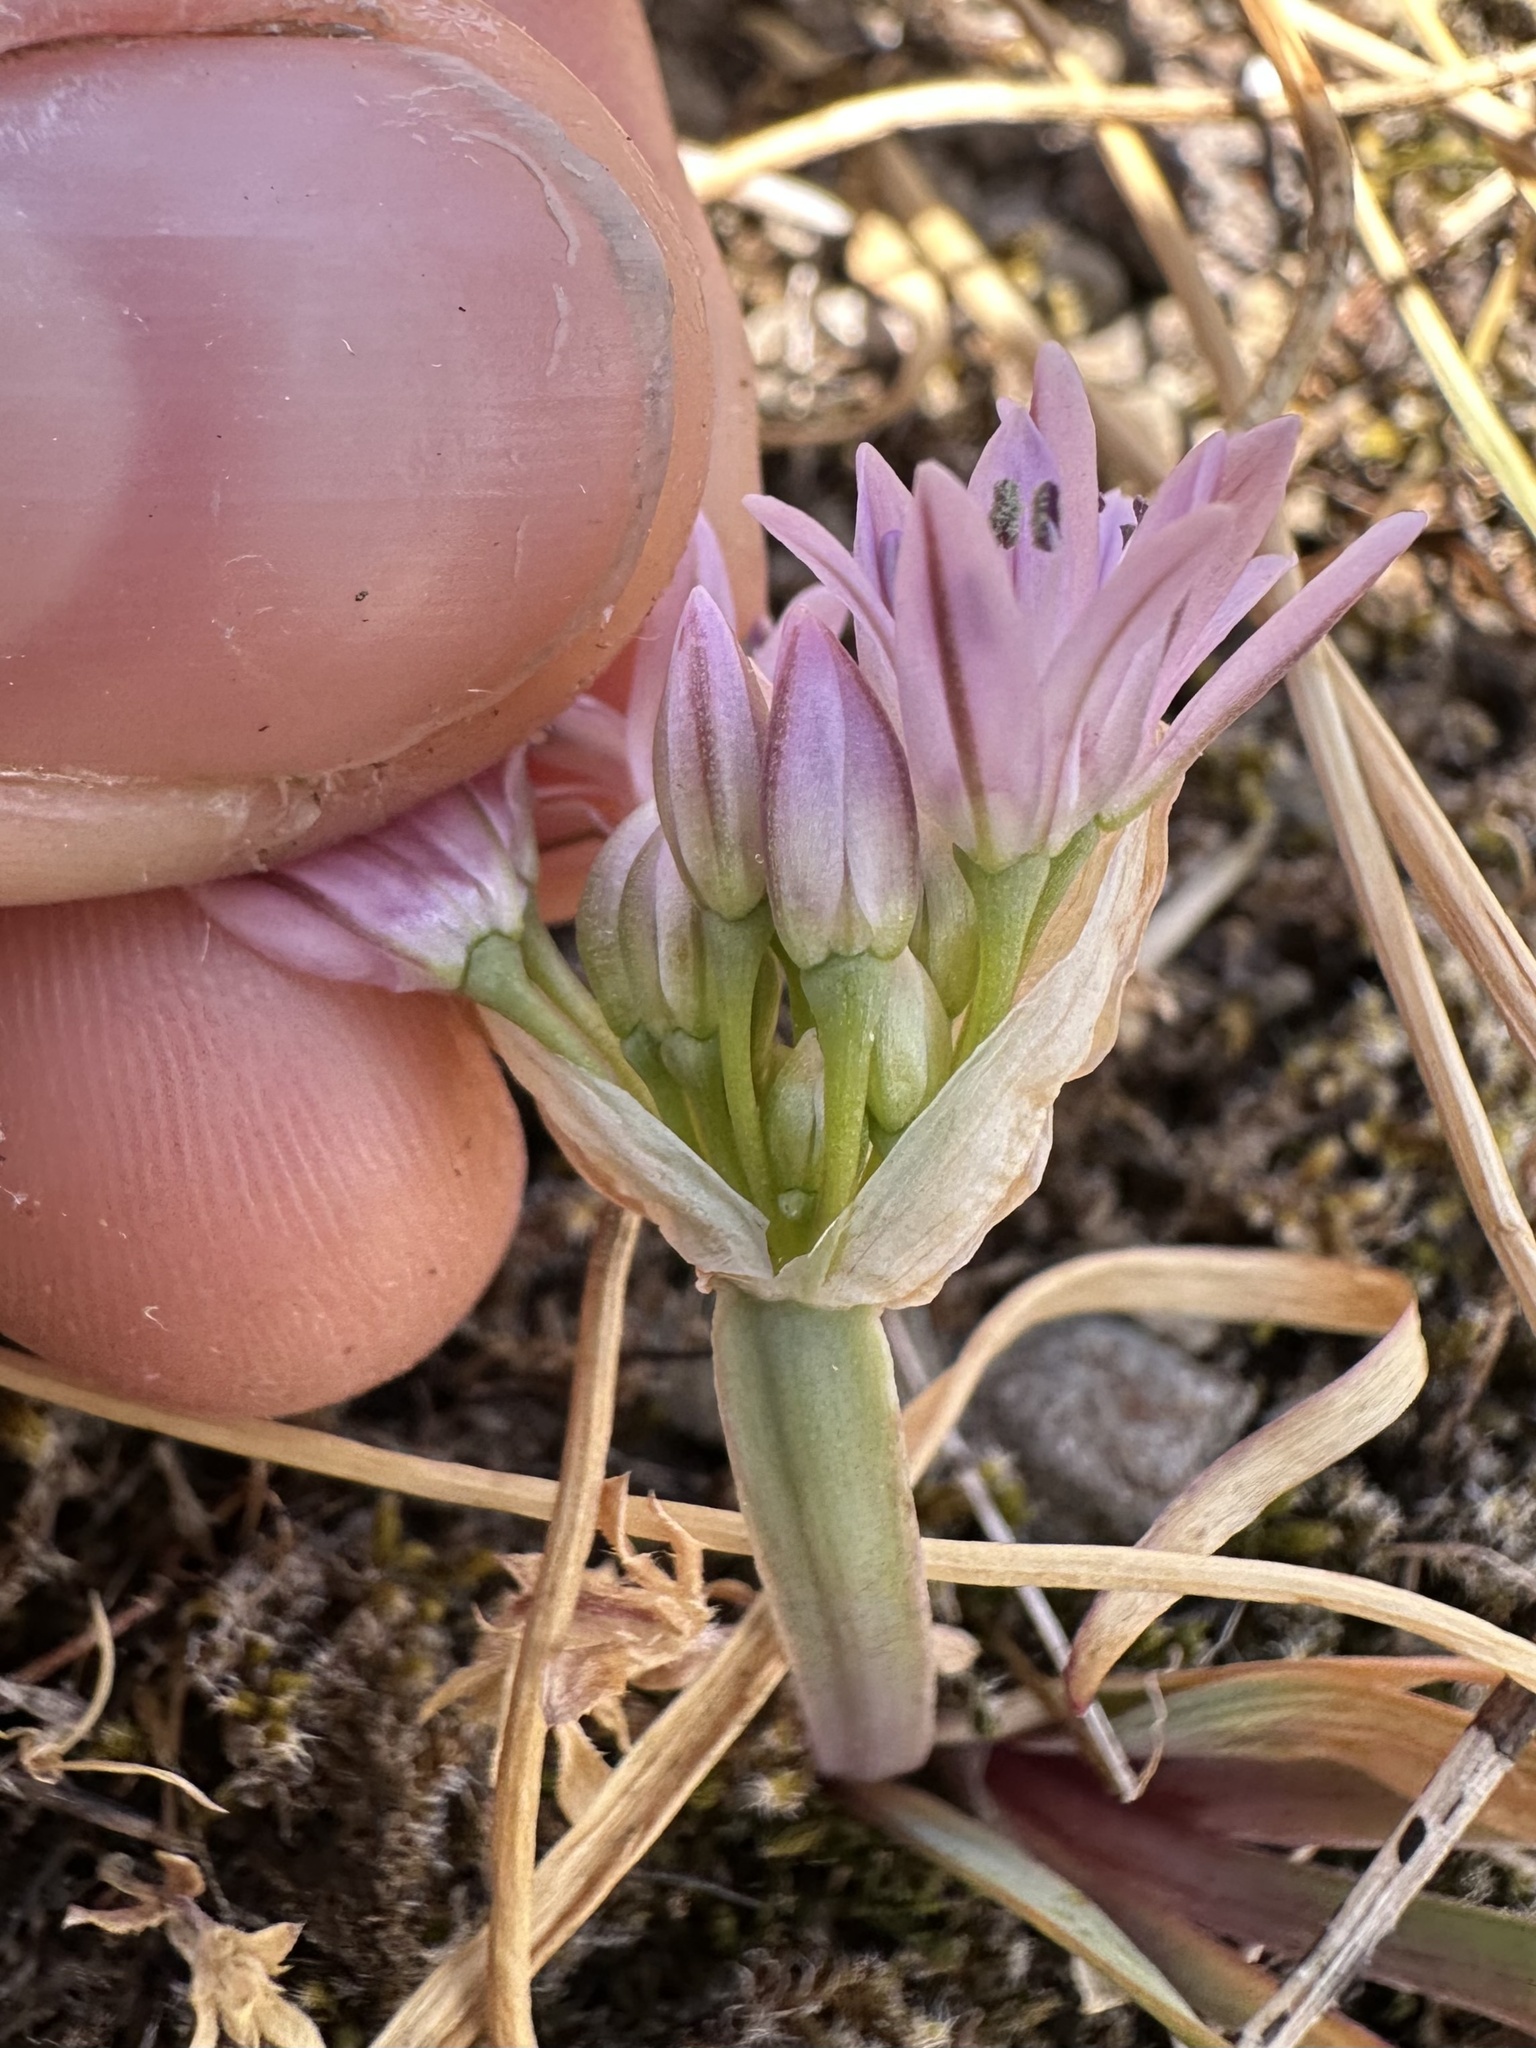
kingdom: Plantae
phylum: Tracheophyta
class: Liliopsida
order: Asparagales
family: Amaryllidaceae
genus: Allium
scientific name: Allium crenulatum
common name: Olympic onion
